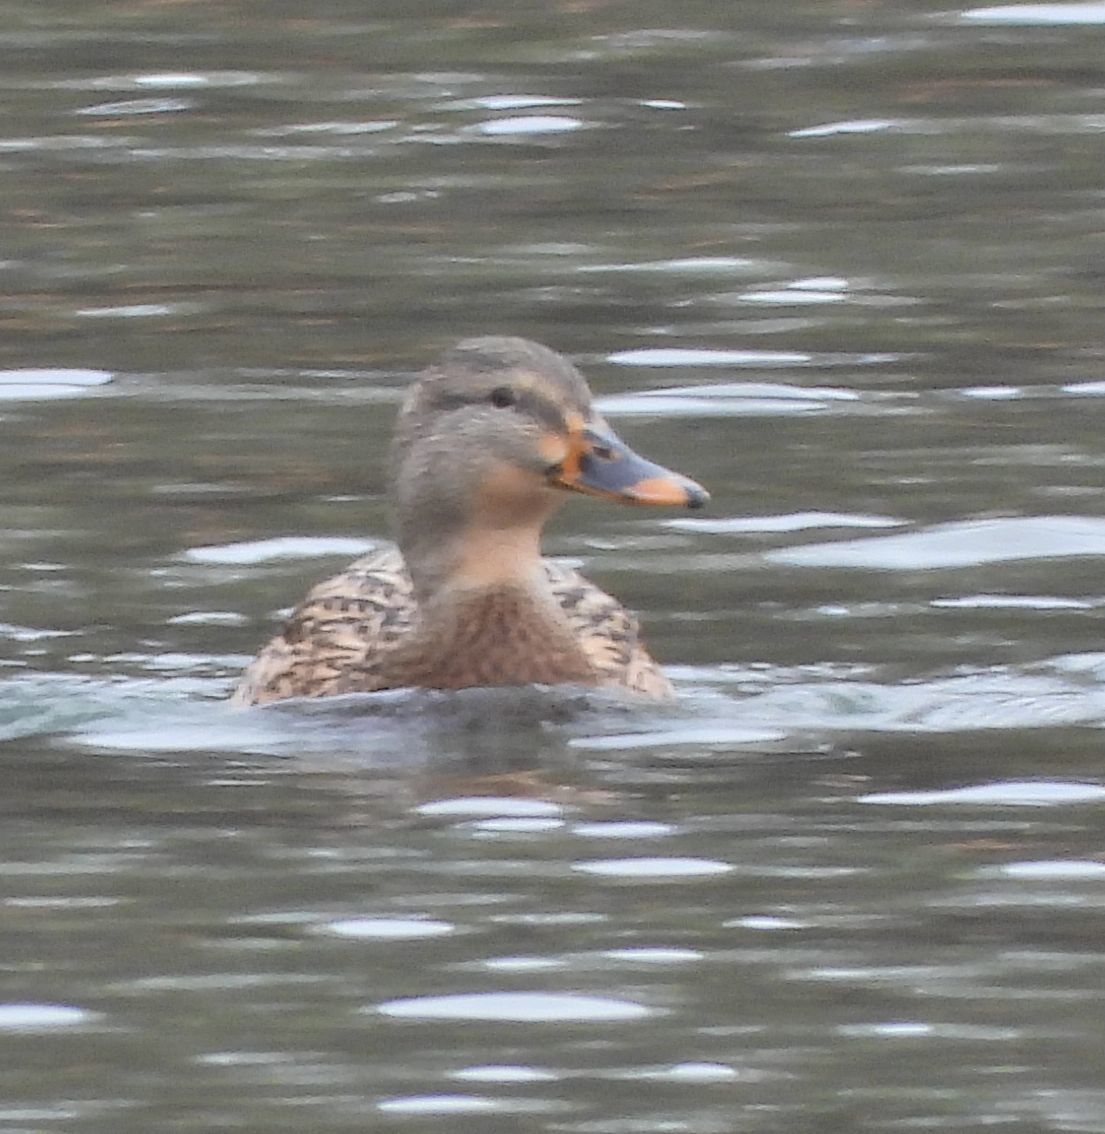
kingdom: Animalia
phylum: Chordata
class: Aves
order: Anseriformes
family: Anatidae
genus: Anas
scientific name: Anas platyrhynchos
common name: Mallard
